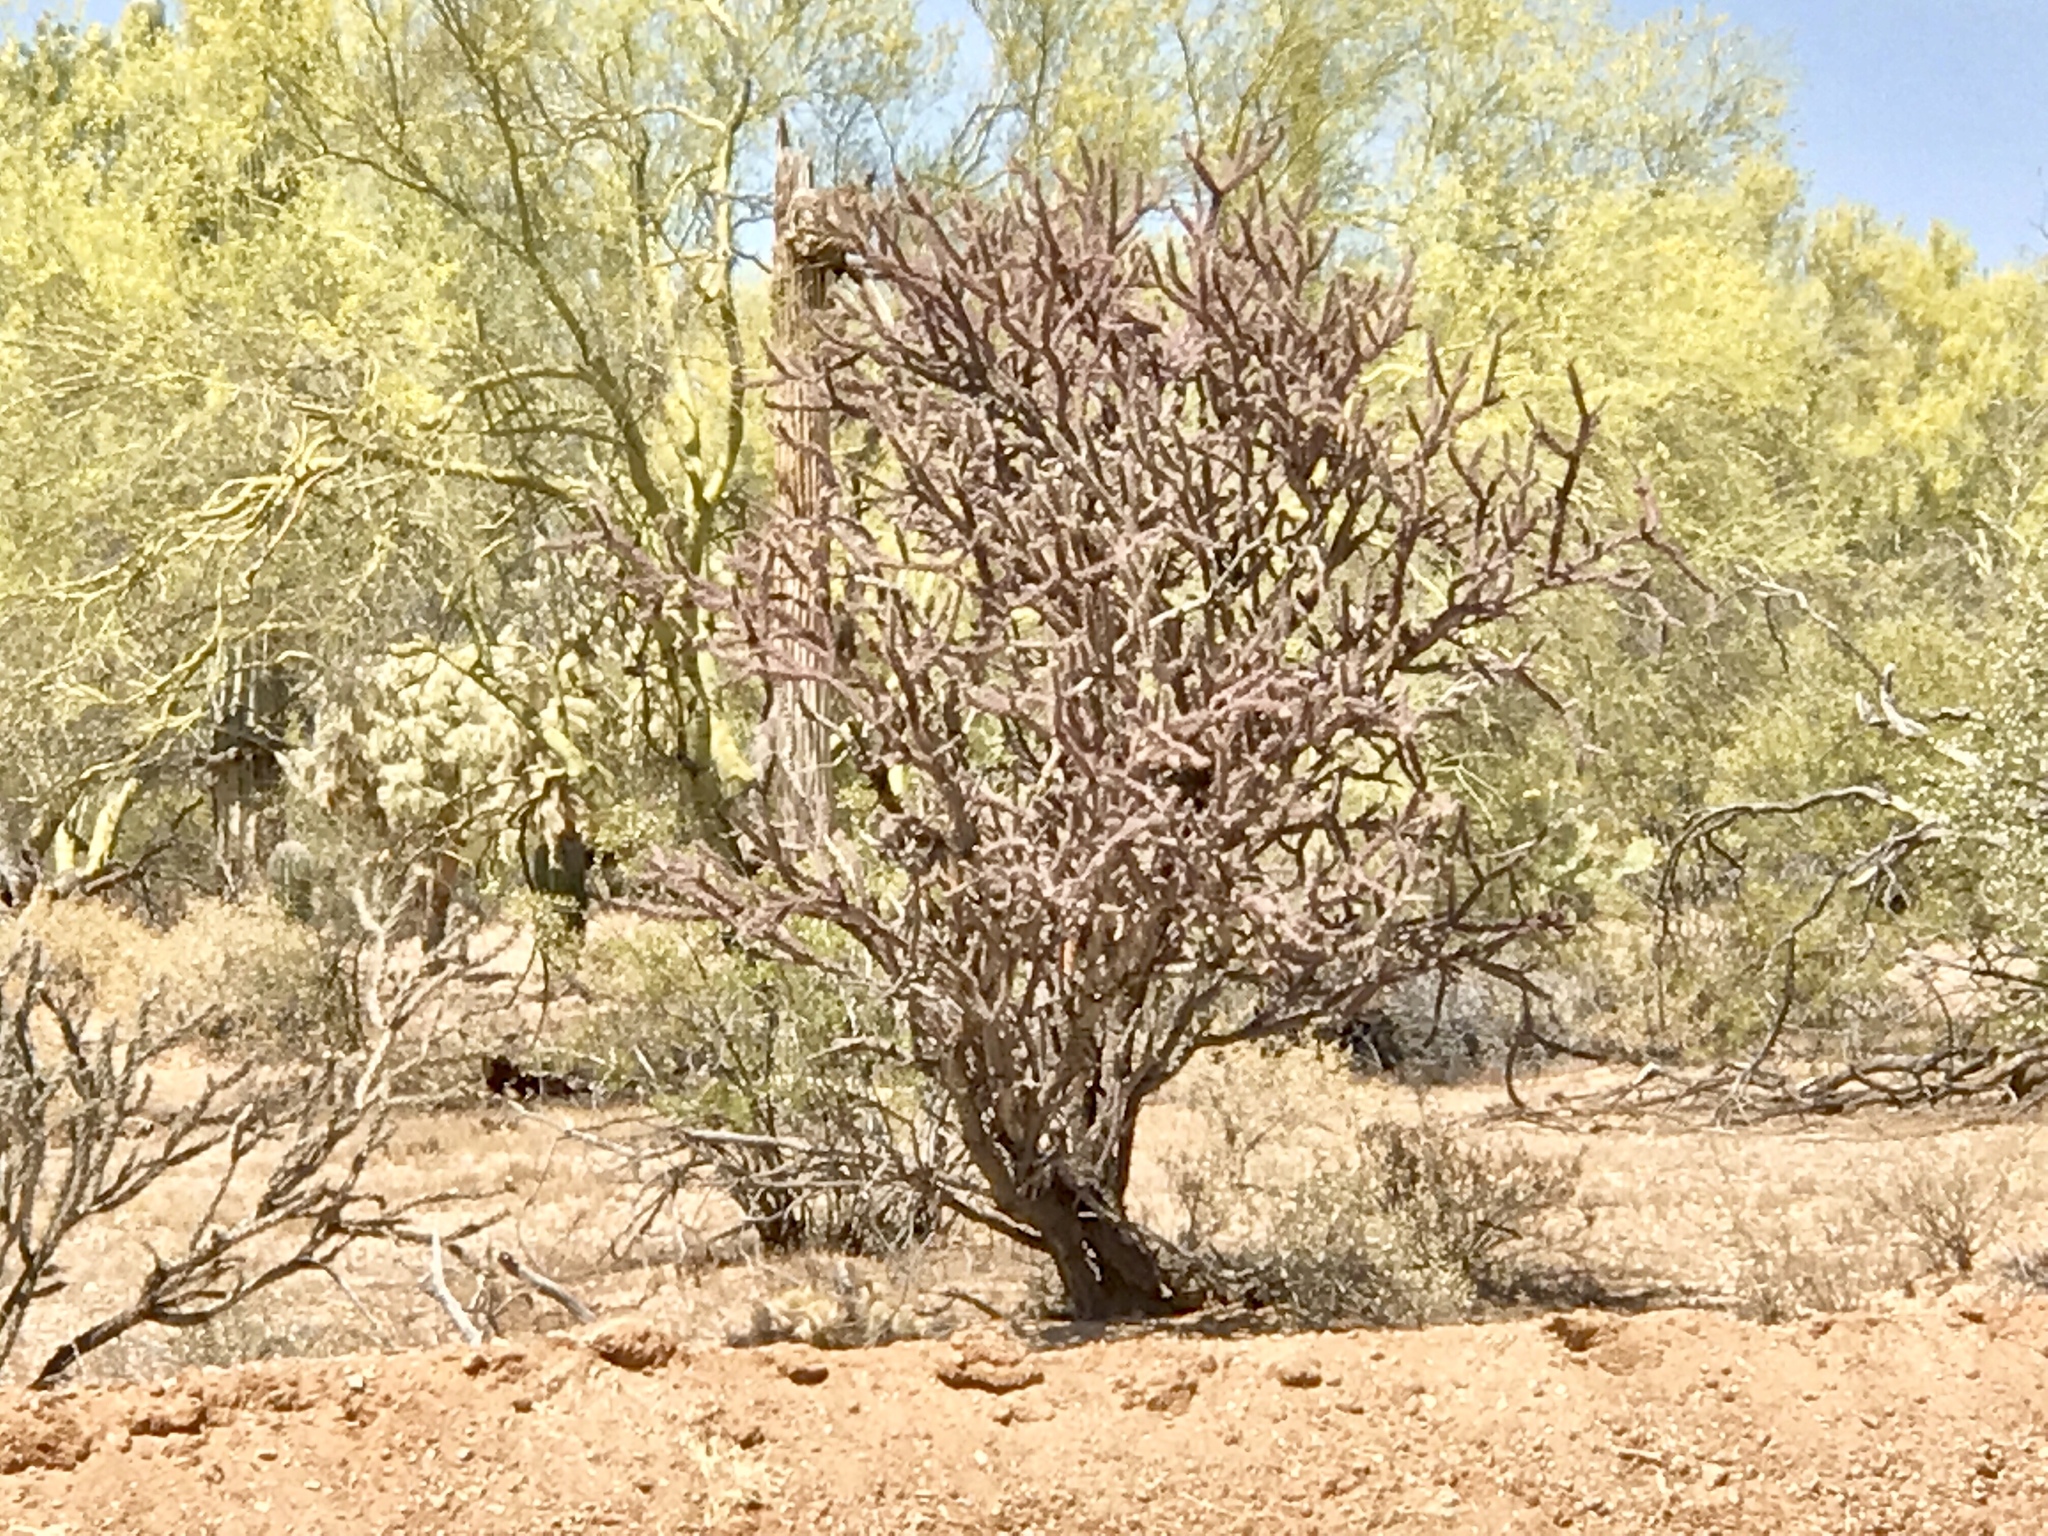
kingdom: Plantae
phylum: Tracheophyta
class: Magnoliopsida
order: Caryophyllales
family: Cactaceae
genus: Cylindropuntia
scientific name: Cylindropuntia thurberi
